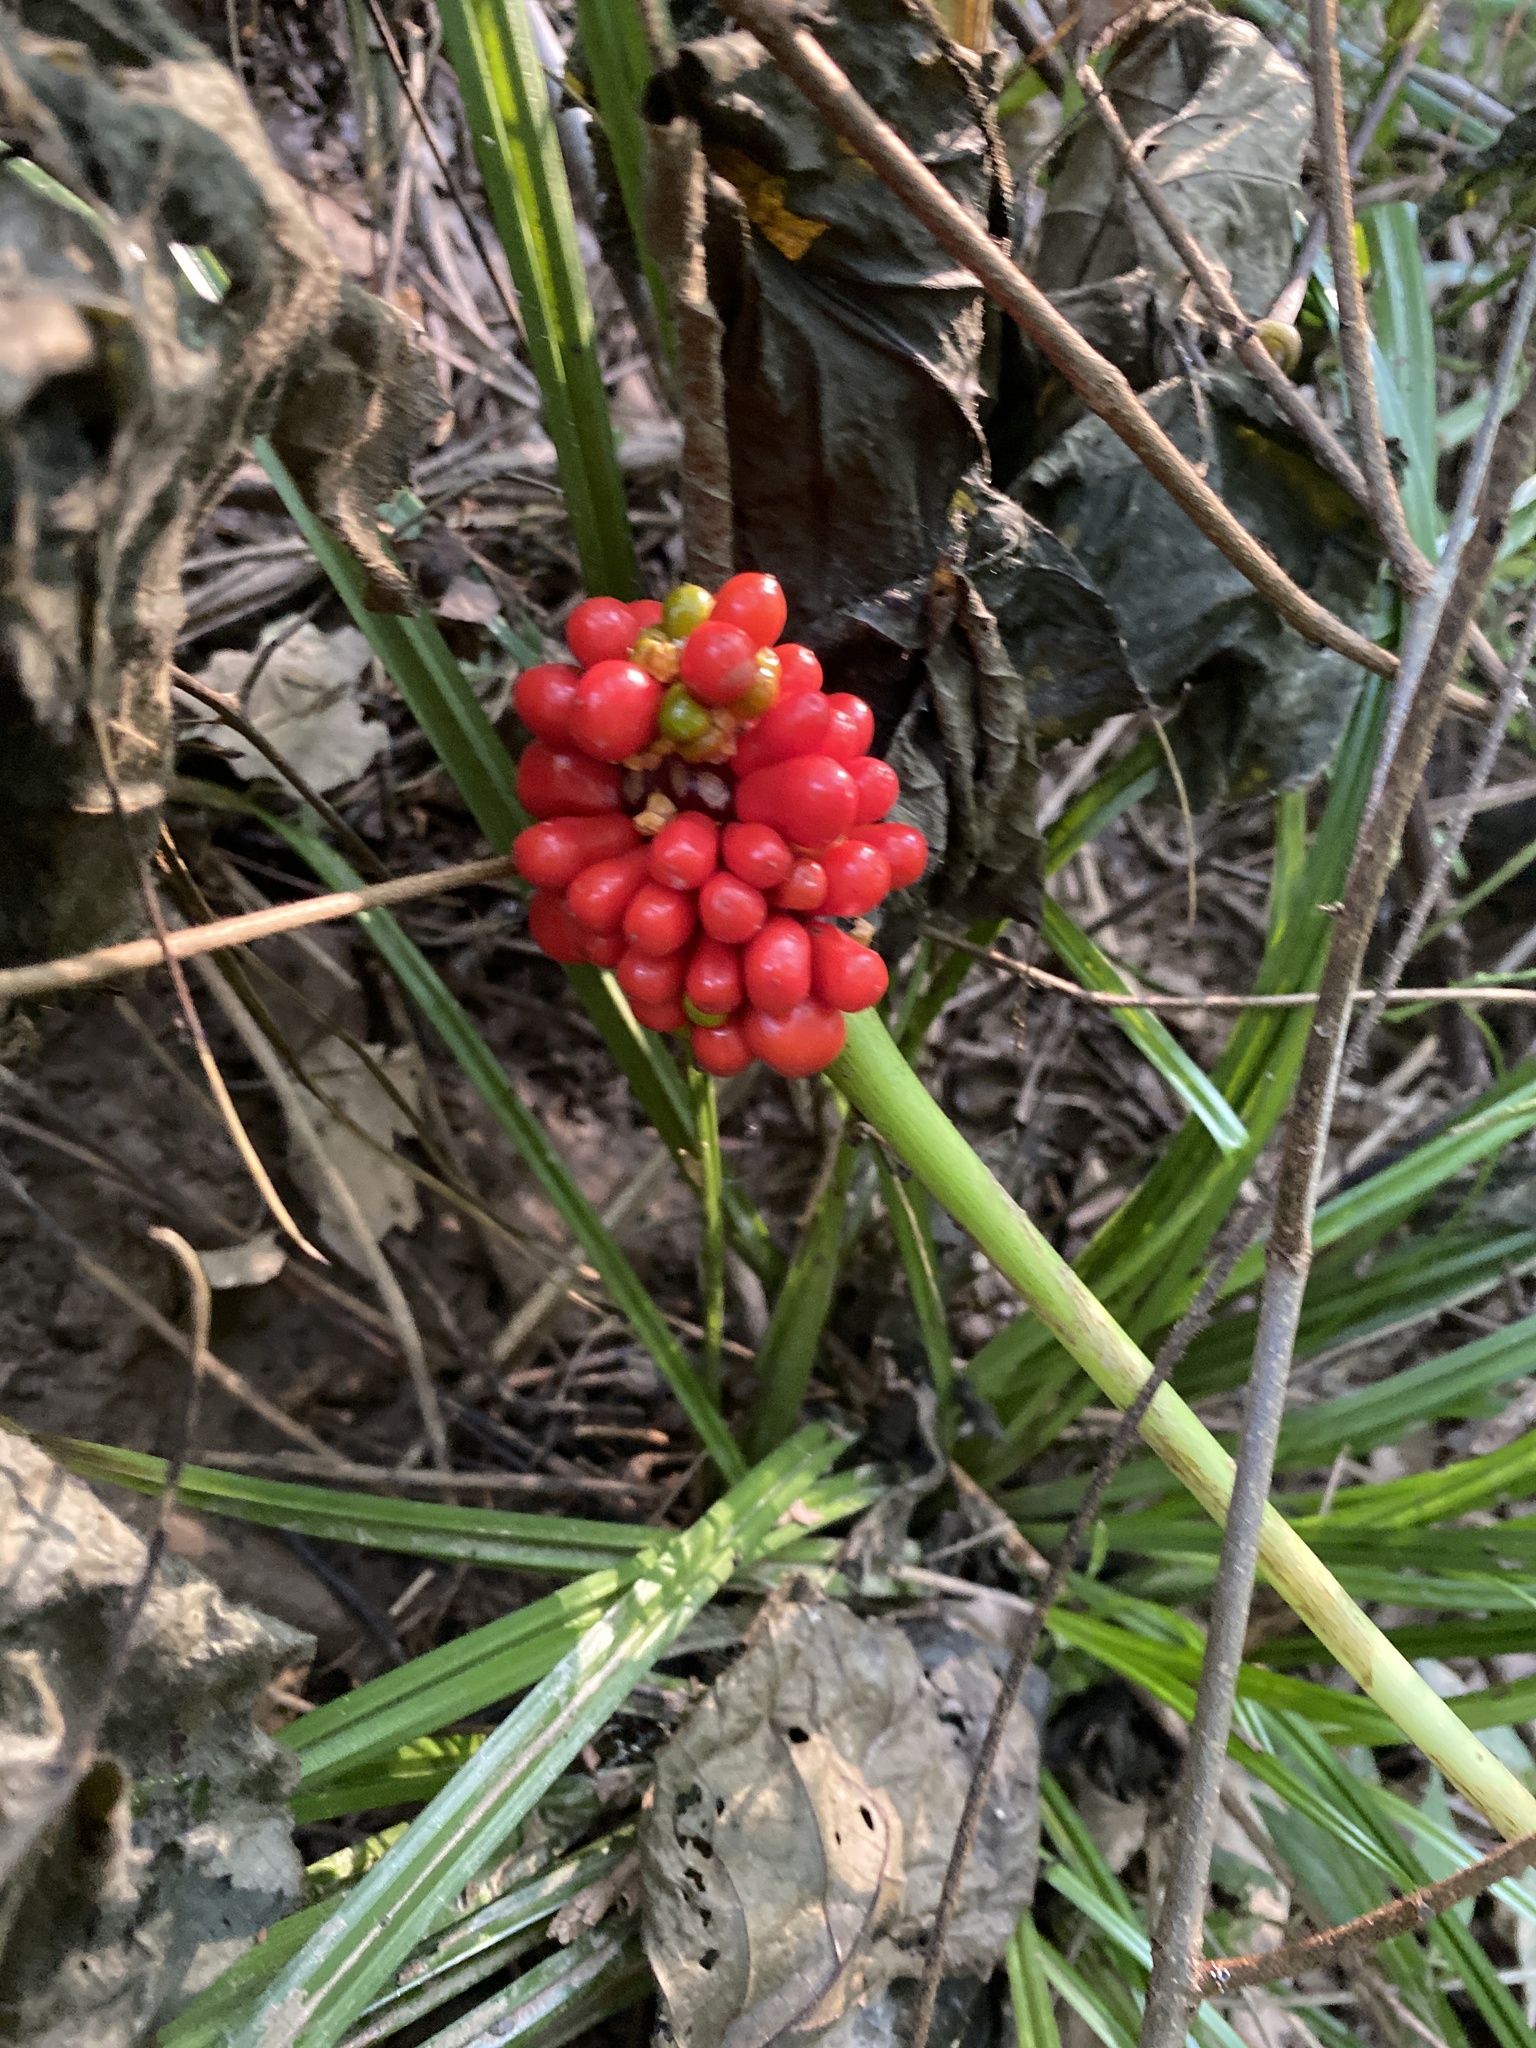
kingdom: Plantae
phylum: Tracheophyta
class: Liliopsida
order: Alismatales
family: Araceae
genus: Arisaema
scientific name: Arisaema triphyllum
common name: Jack-in-the-pulpit
